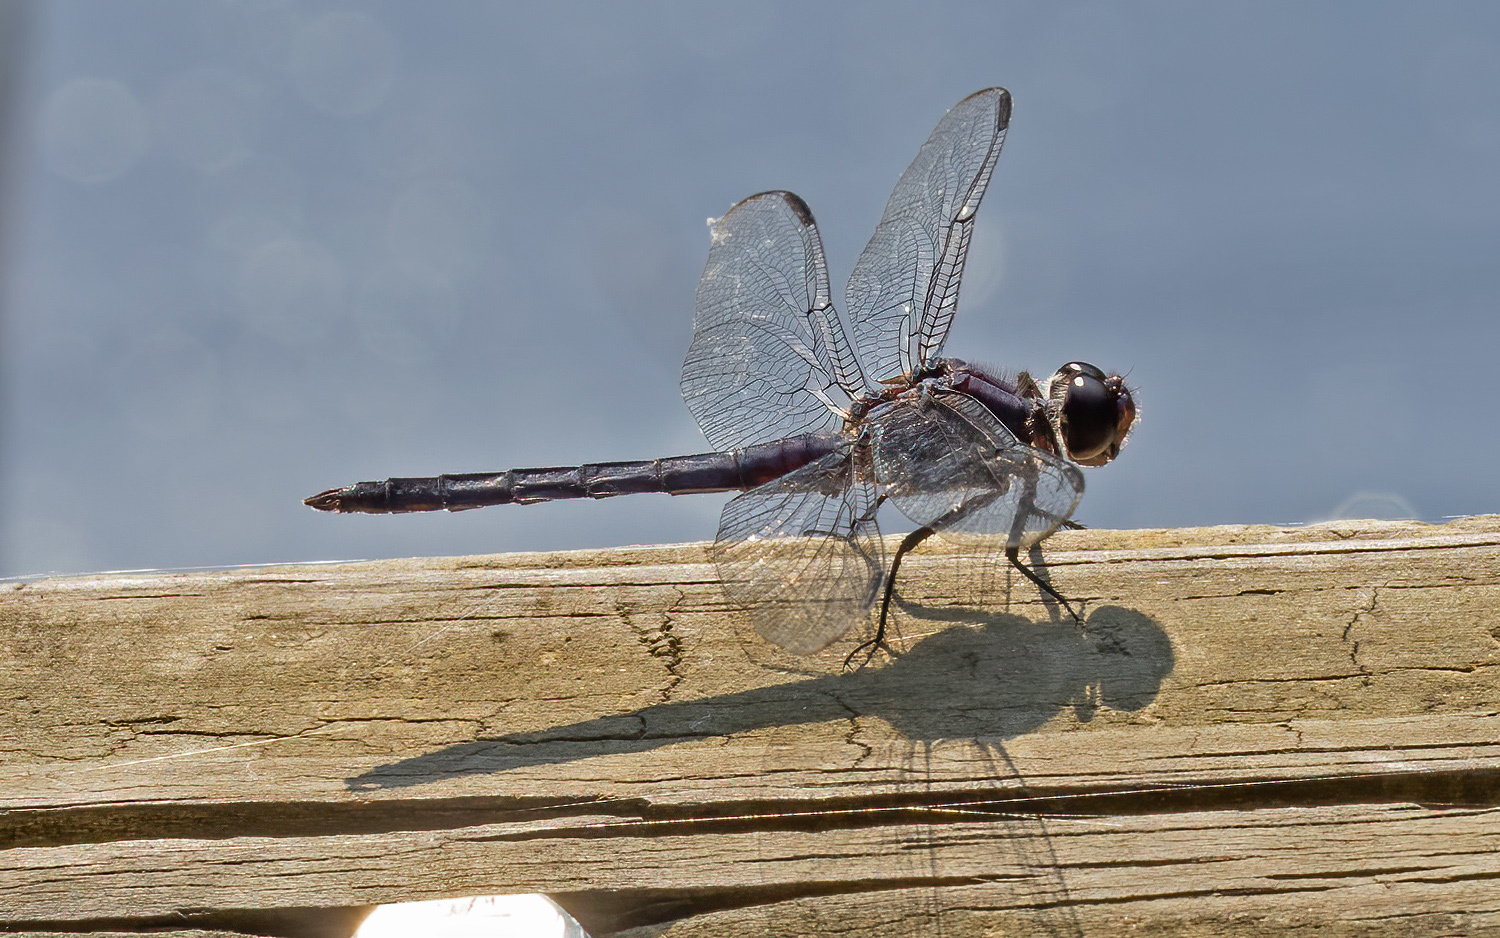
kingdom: Animalia
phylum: Arthropoda
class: Insecta
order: Odonata
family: Libellulidae
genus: Libellula
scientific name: Libellula incesta
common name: Slaty skimmer
